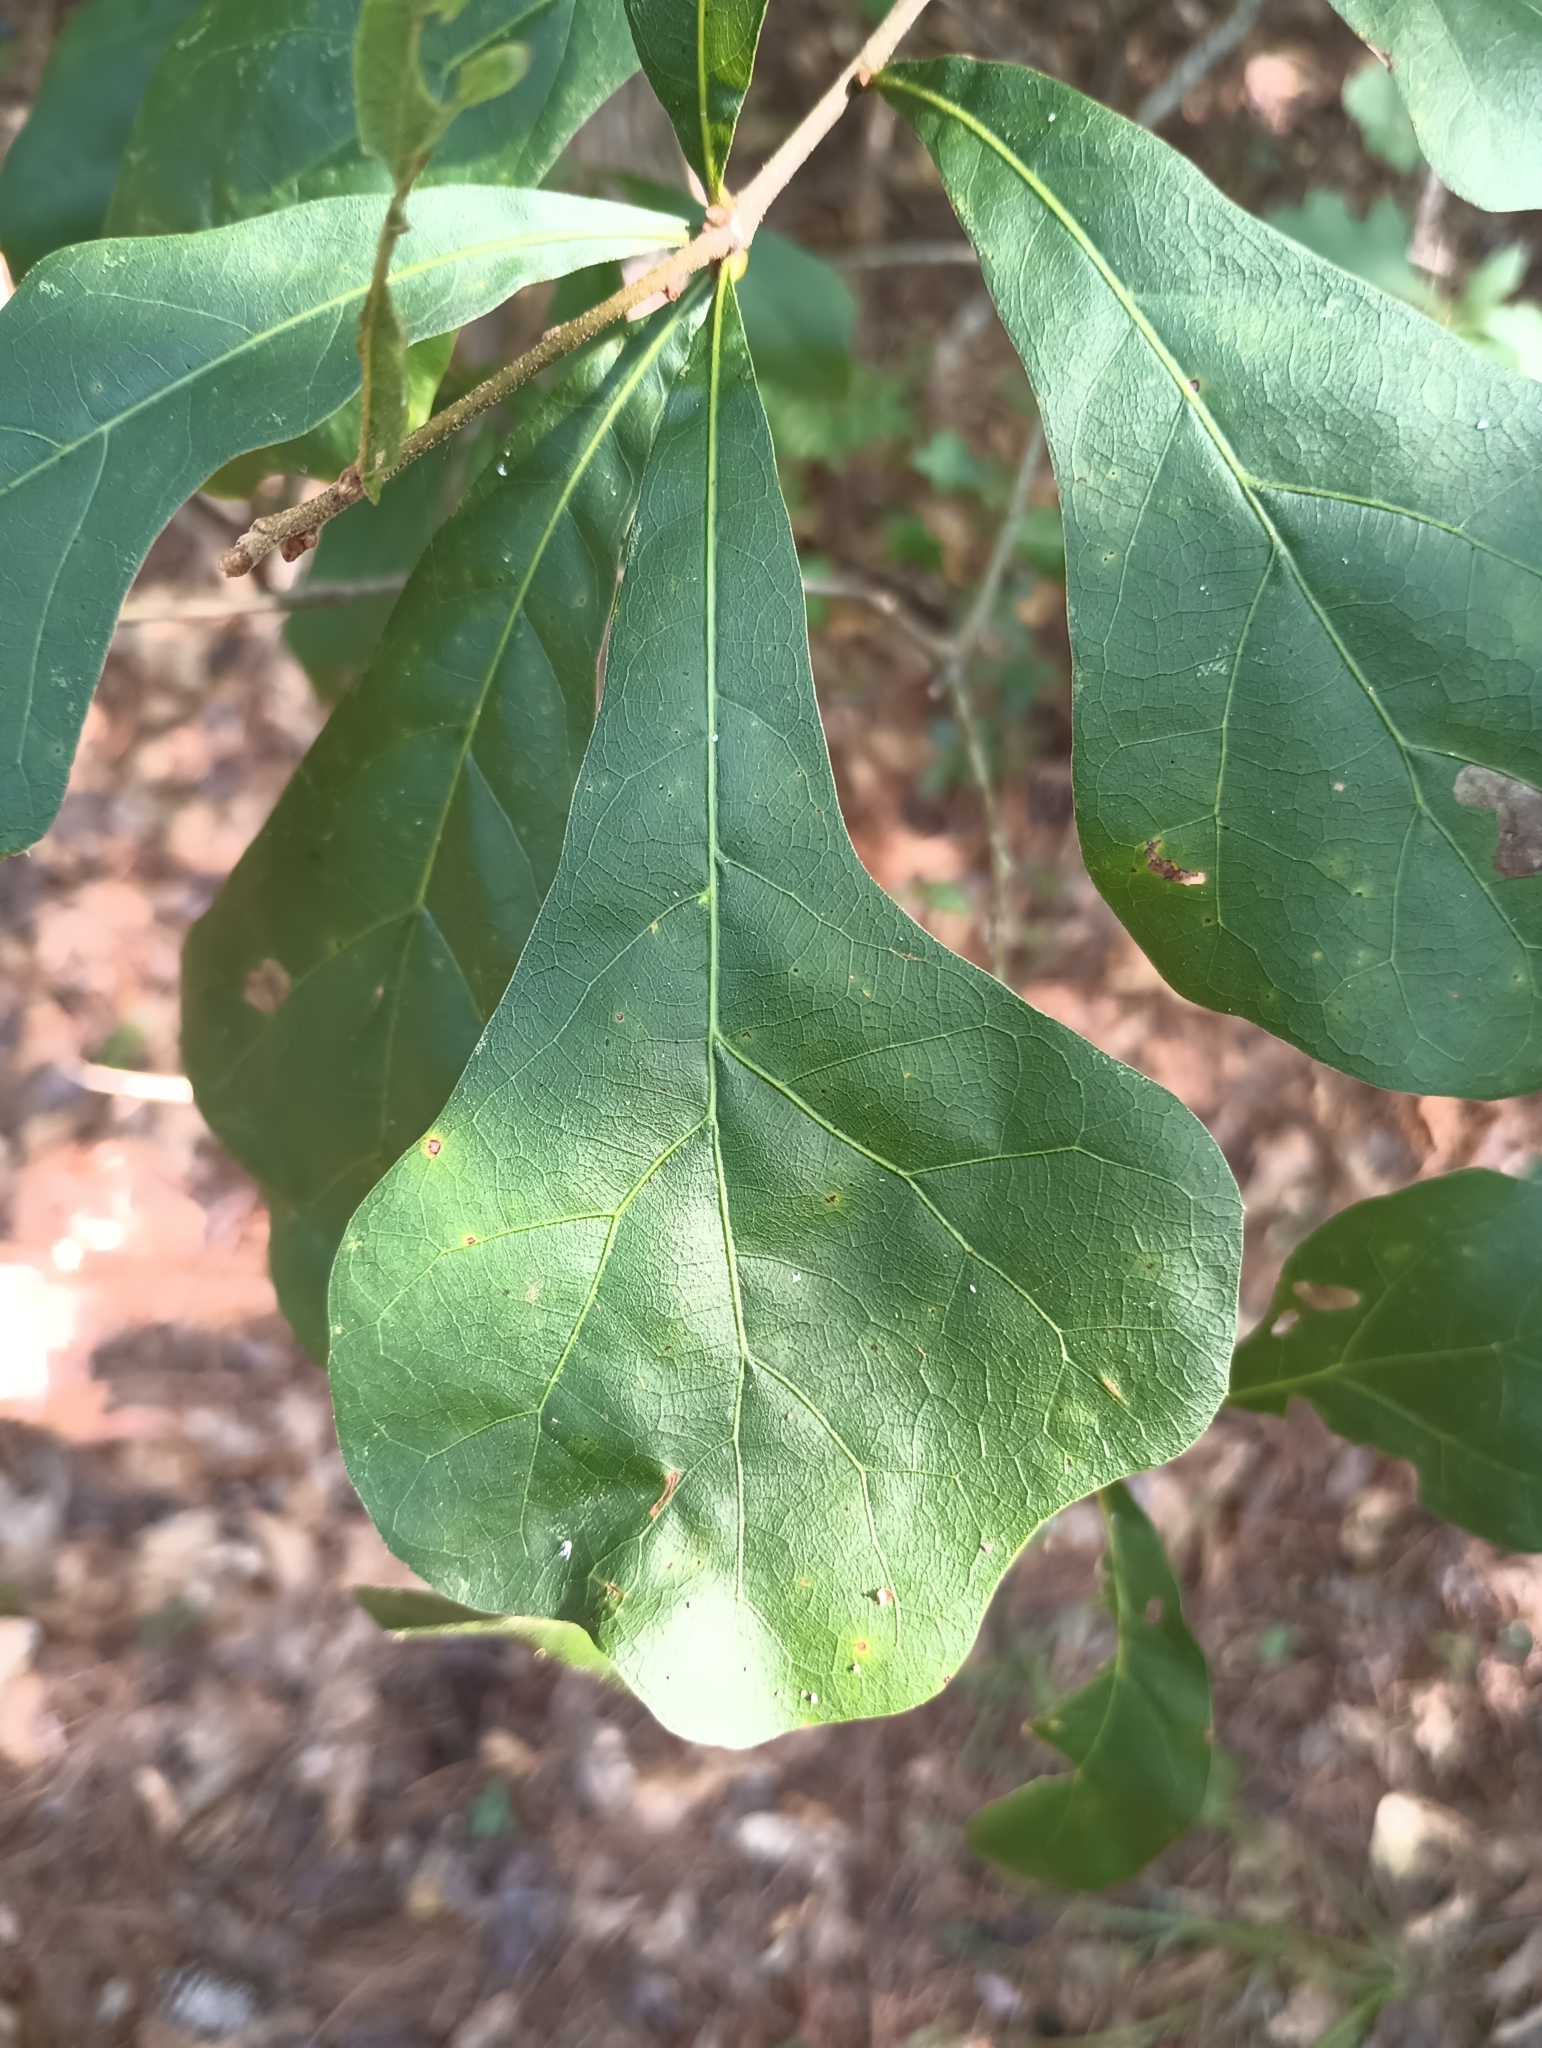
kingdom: Plantae
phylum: Tracheophyta
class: Magnoliopsida
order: Fagales
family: Fagaceae
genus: Quercus
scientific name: Quercus nigra
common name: Water oak
